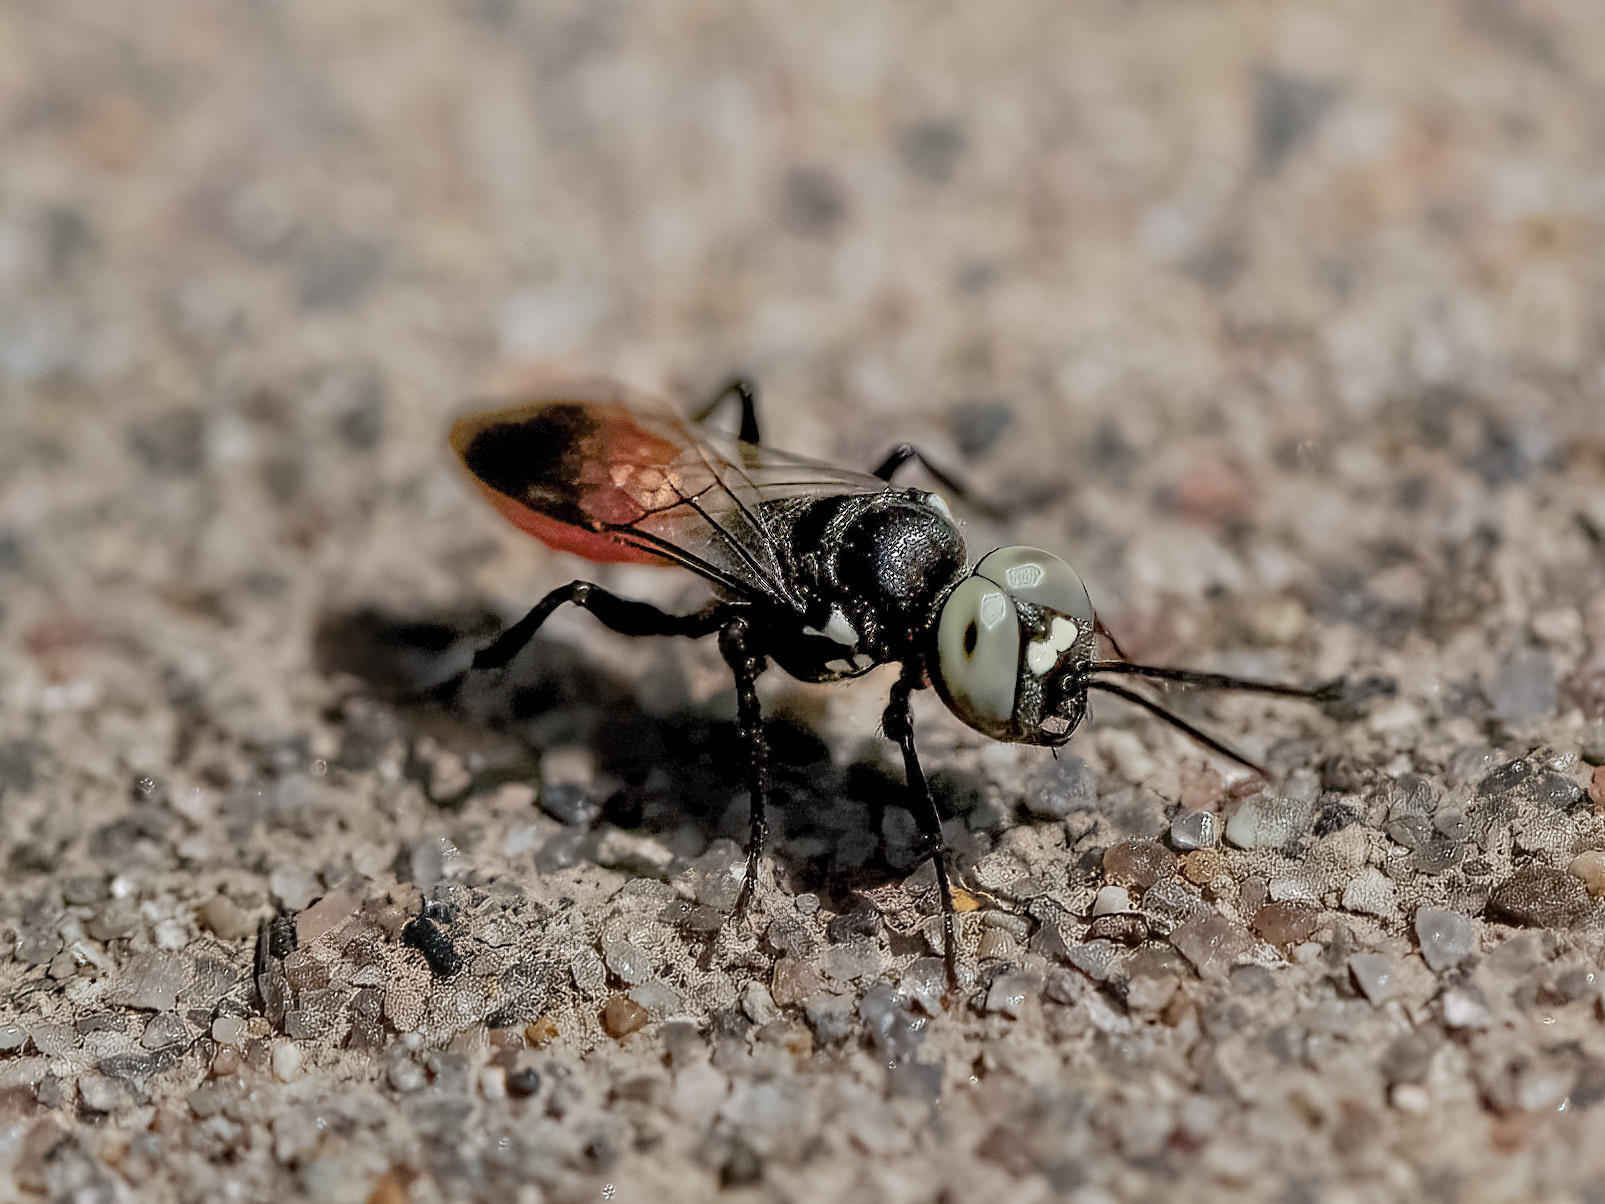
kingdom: Animalia
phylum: Arthropoda
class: Insecta
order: Hymenoptera
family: Crabronidae
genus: Dryudella
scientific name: Dryudella
